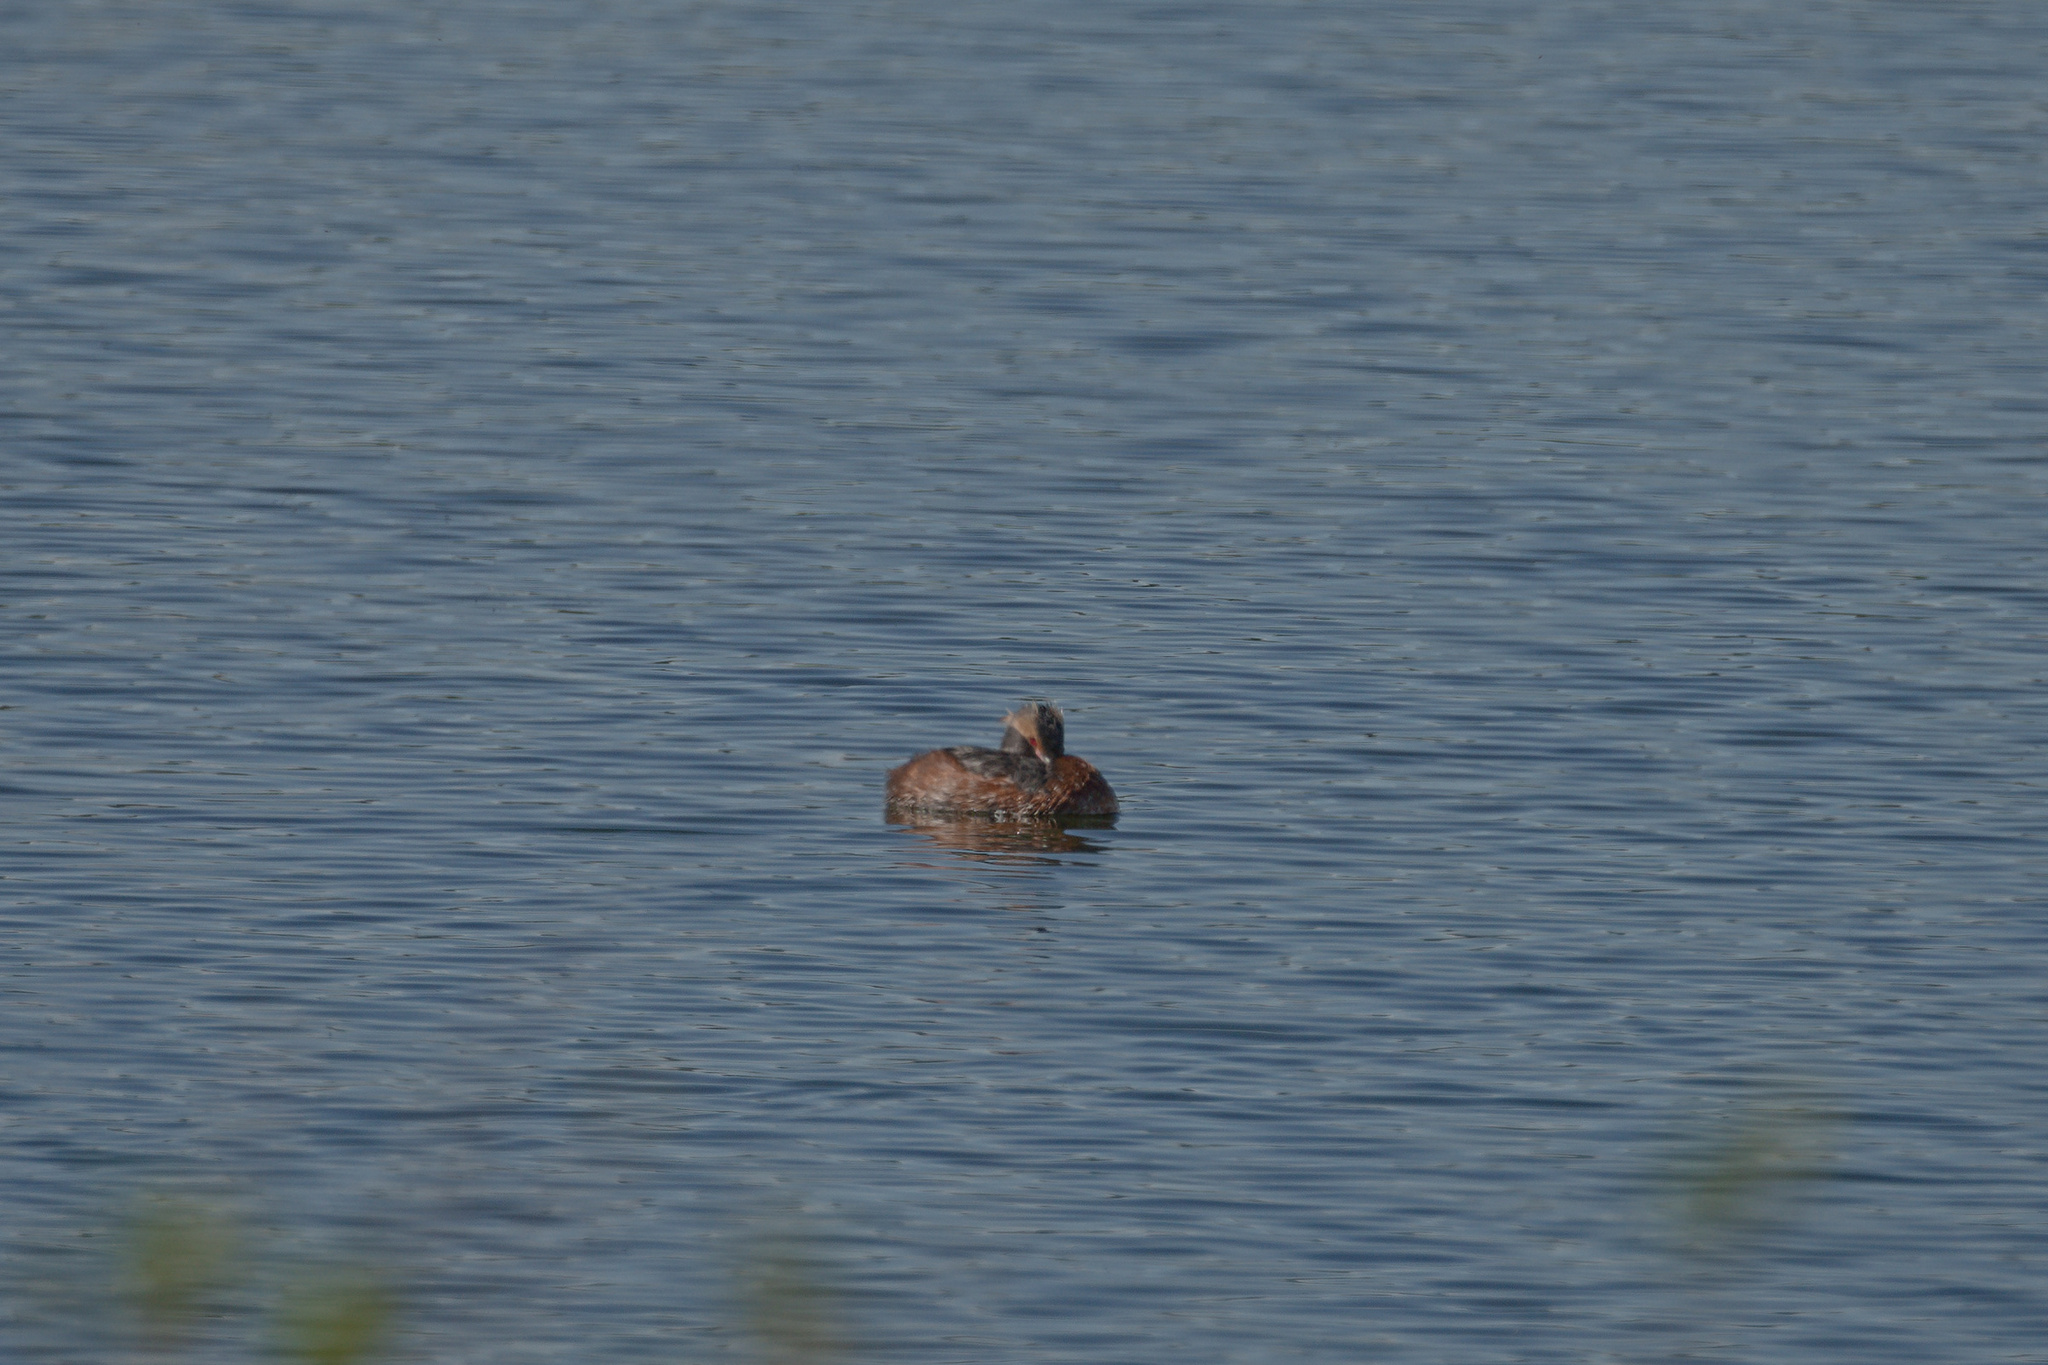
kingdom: Animalia
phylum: Chordata
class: Aves
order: Podicipediformes
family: Podicipedidae
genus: Podiceps
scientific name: Podiceps auritus
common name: Horned grebe
